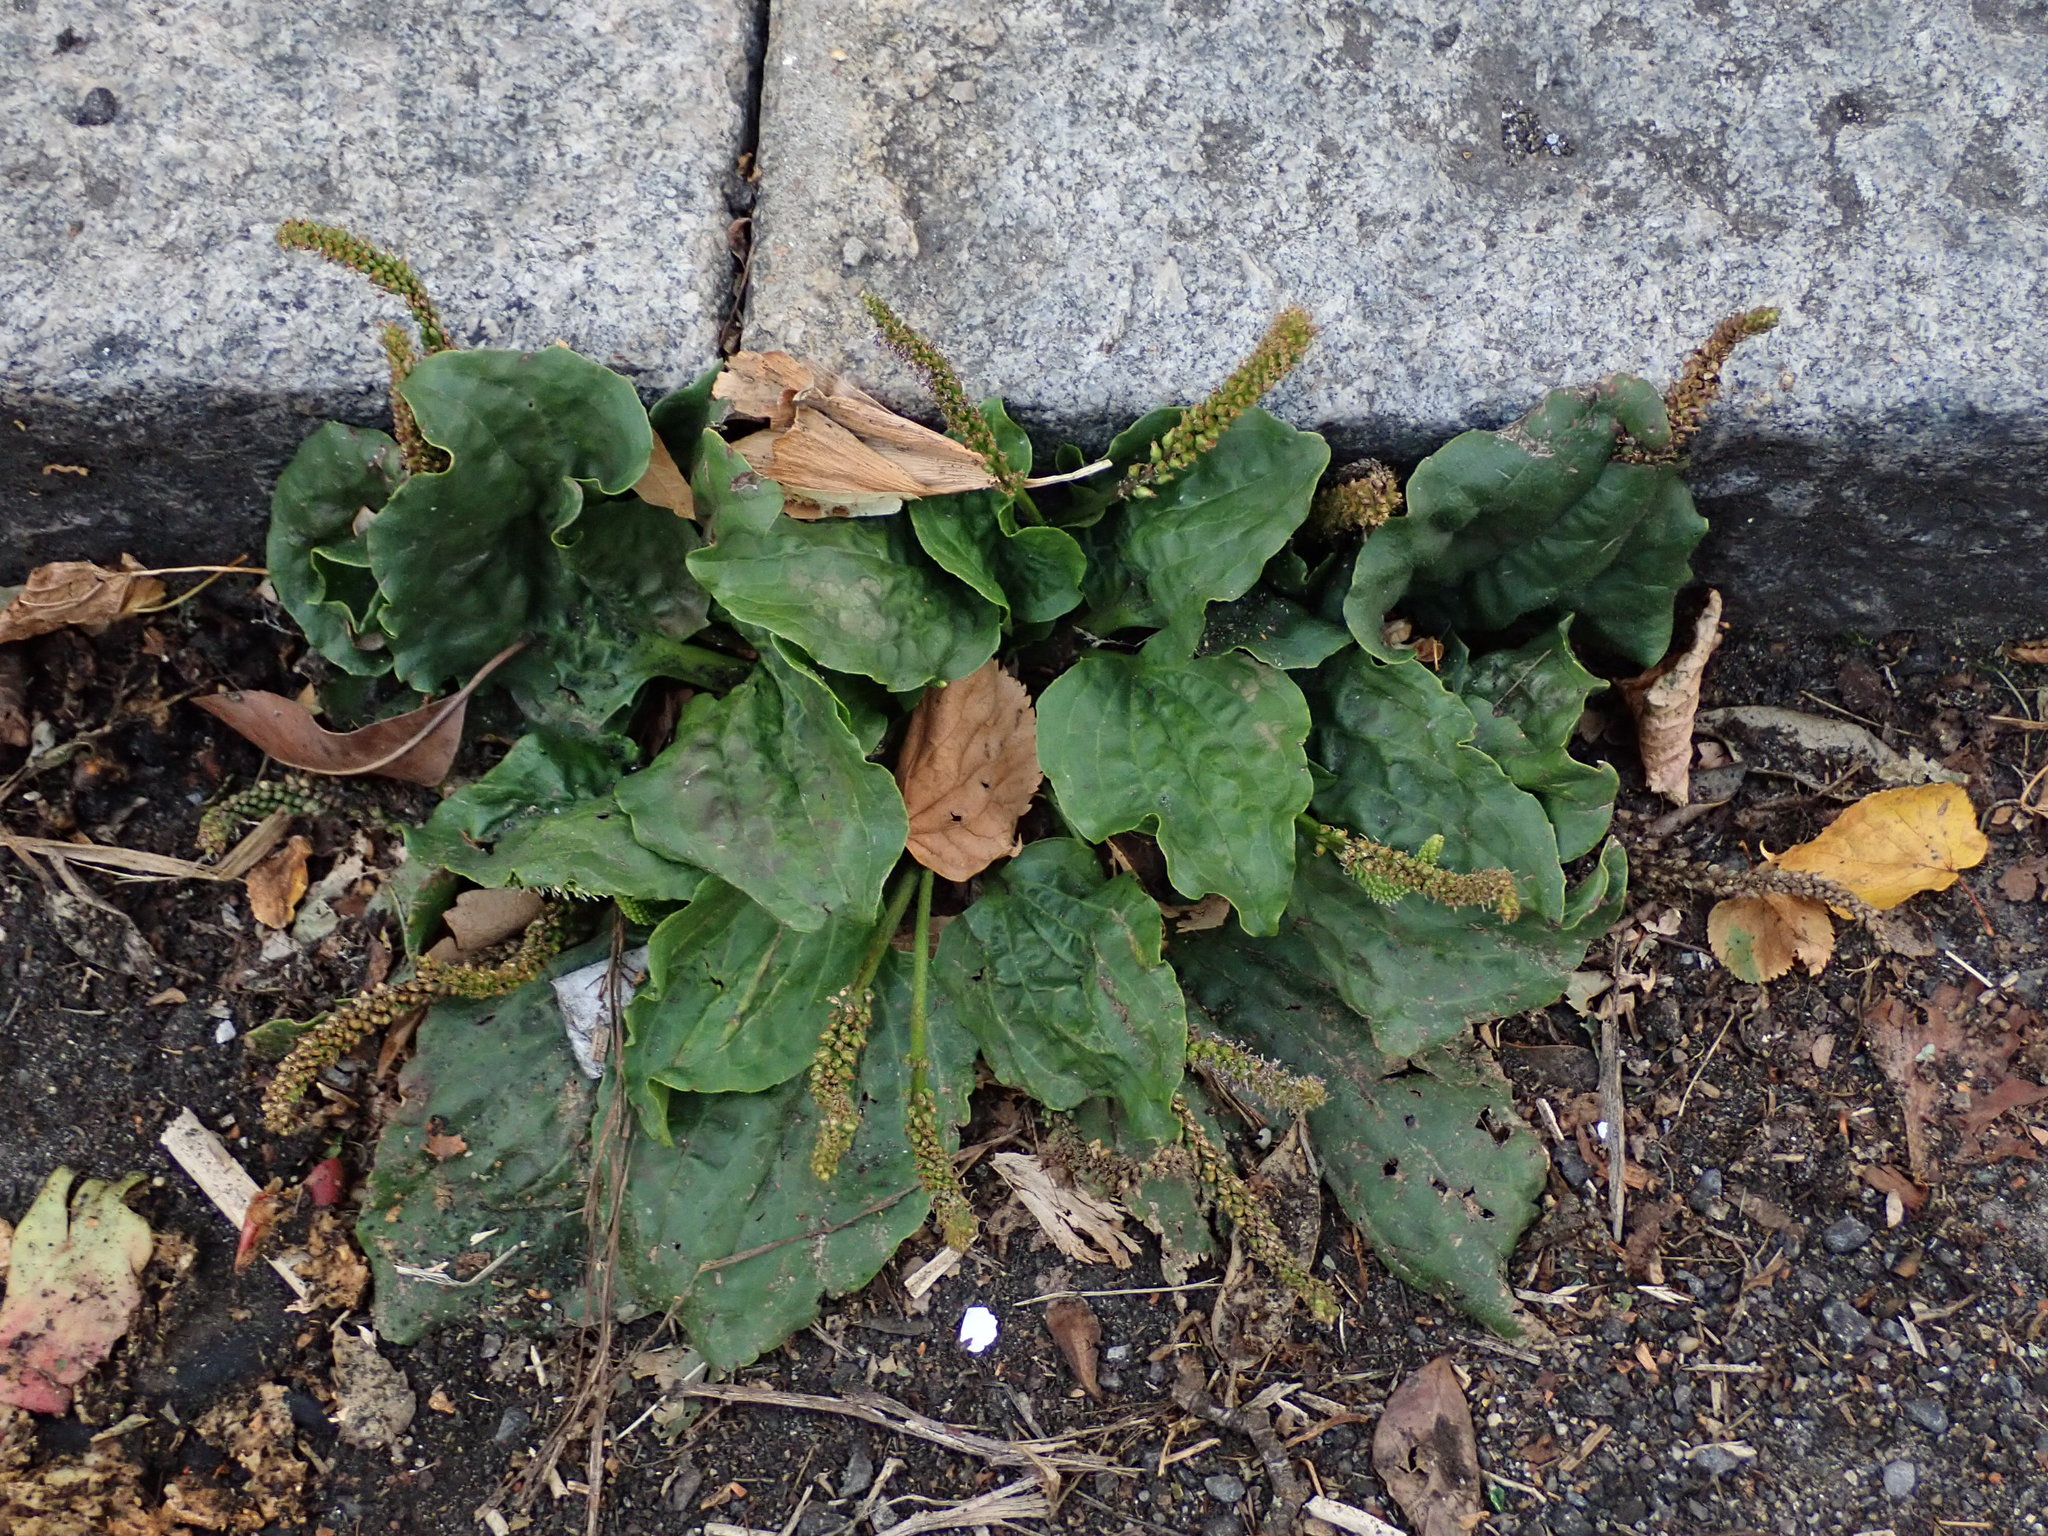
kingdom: Plantae
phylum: Tracheophyta
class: Magnoliopsida
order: Lamiales
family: Plantaginaceae
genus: Plantago
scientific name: Plantago major
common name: Common plantain
